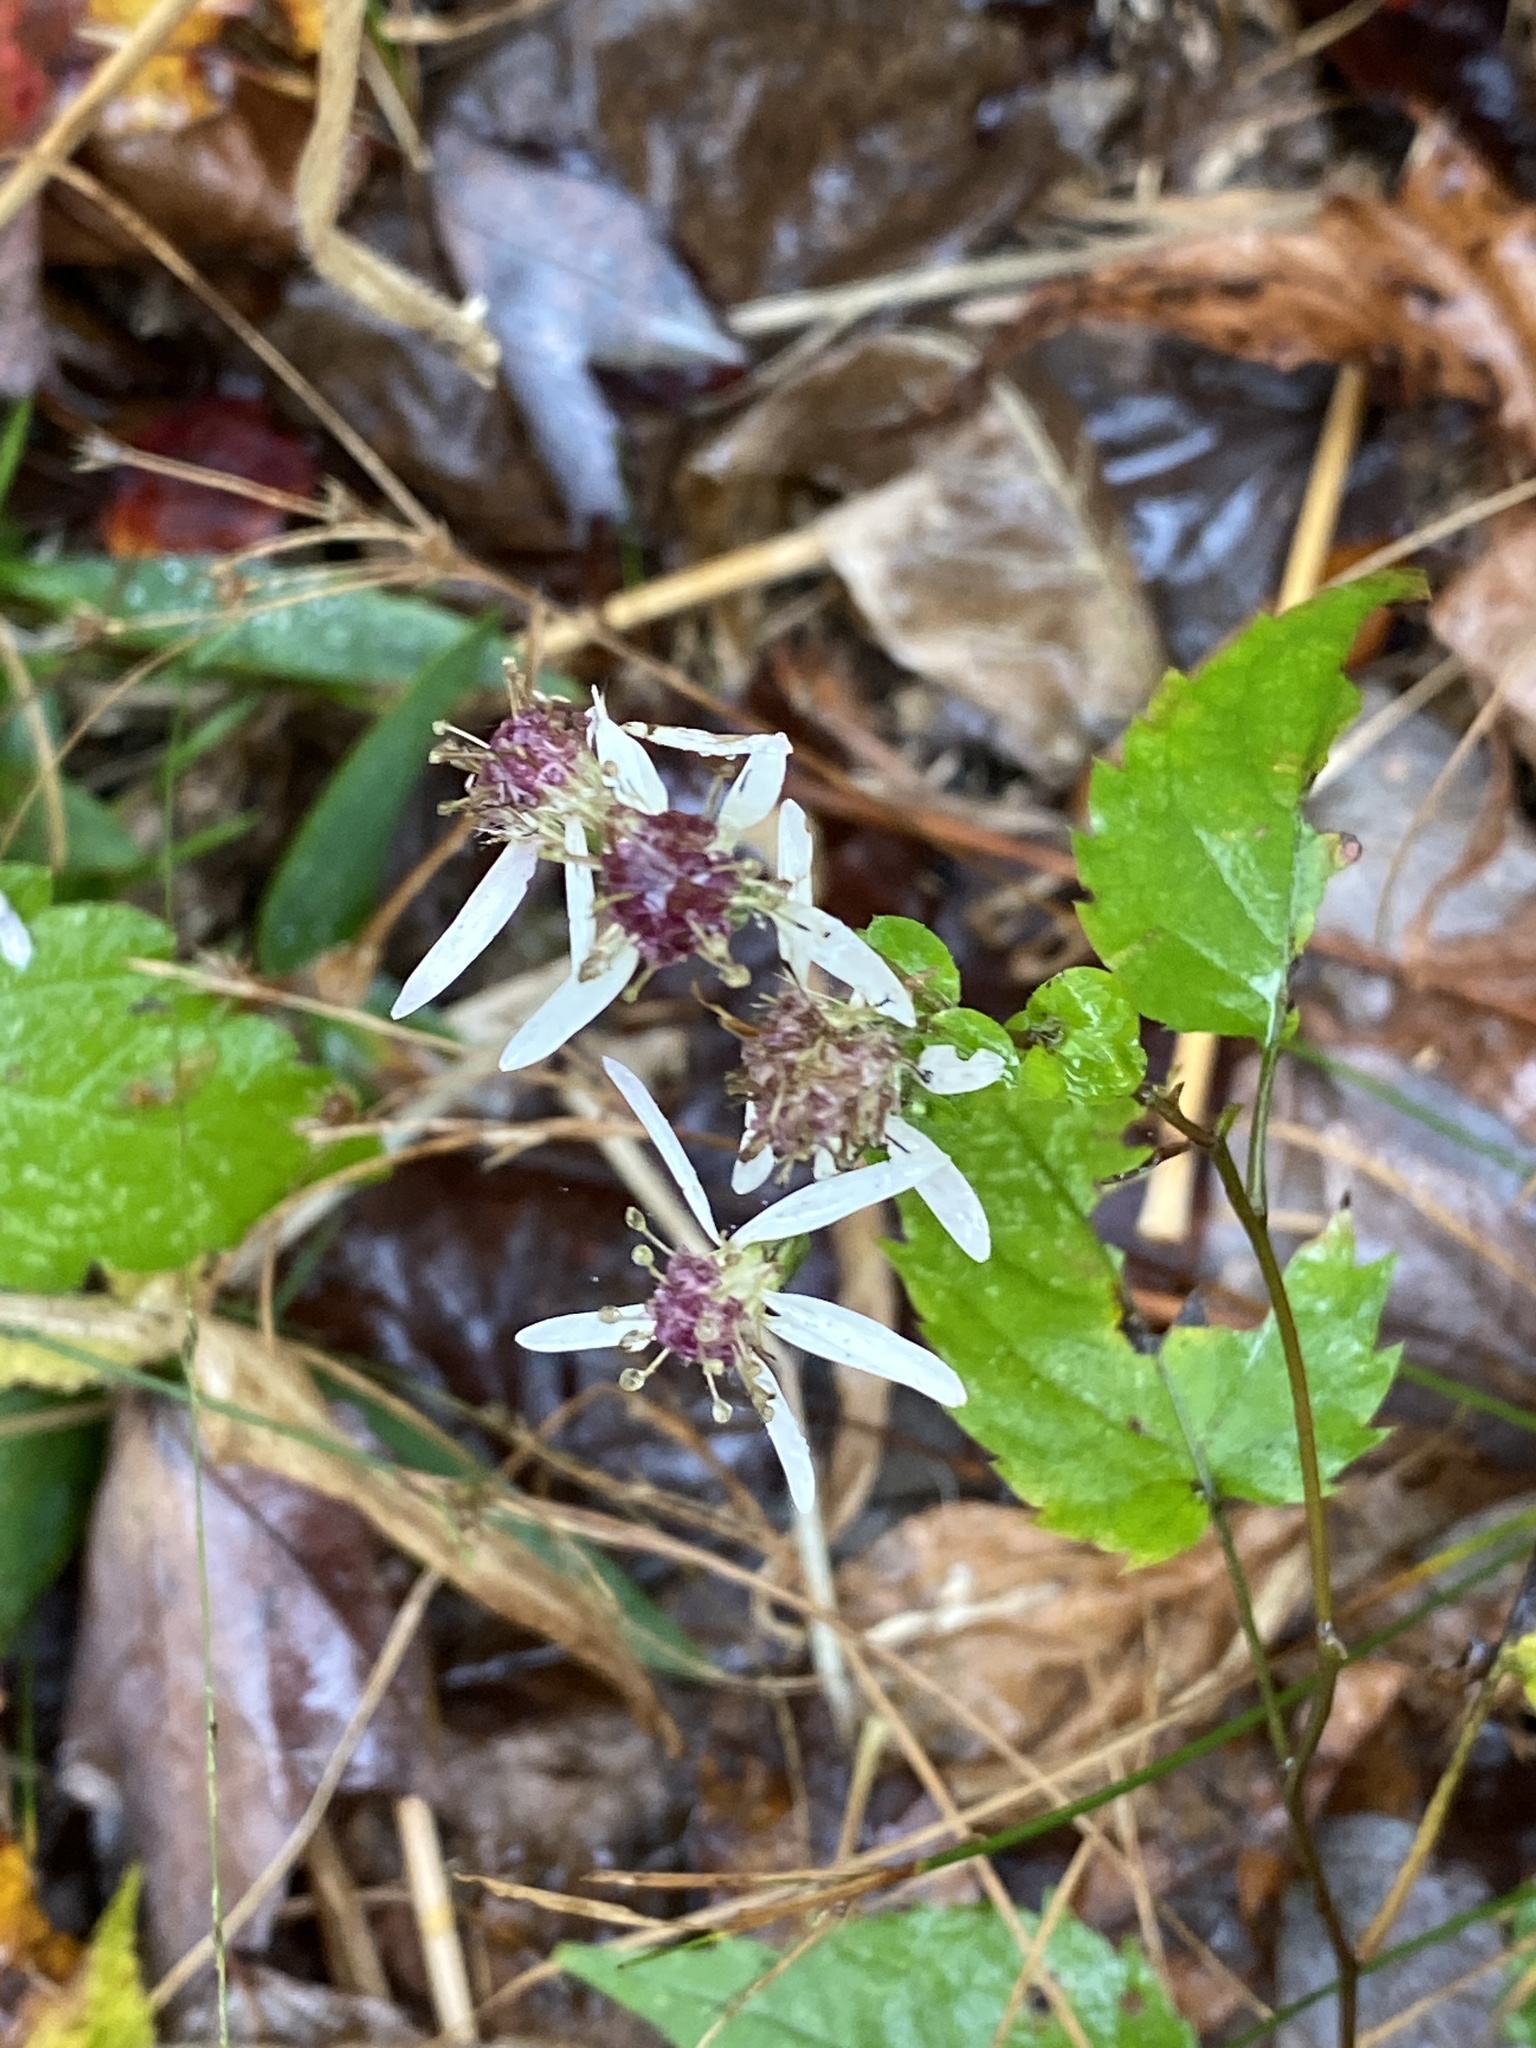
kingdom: Plantae
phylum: Tracheophyta
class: Magnoliopsida
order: Asterales
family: Asteraceae
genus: Eurybia
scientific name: Eurybia divaricata
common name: White wood aster
